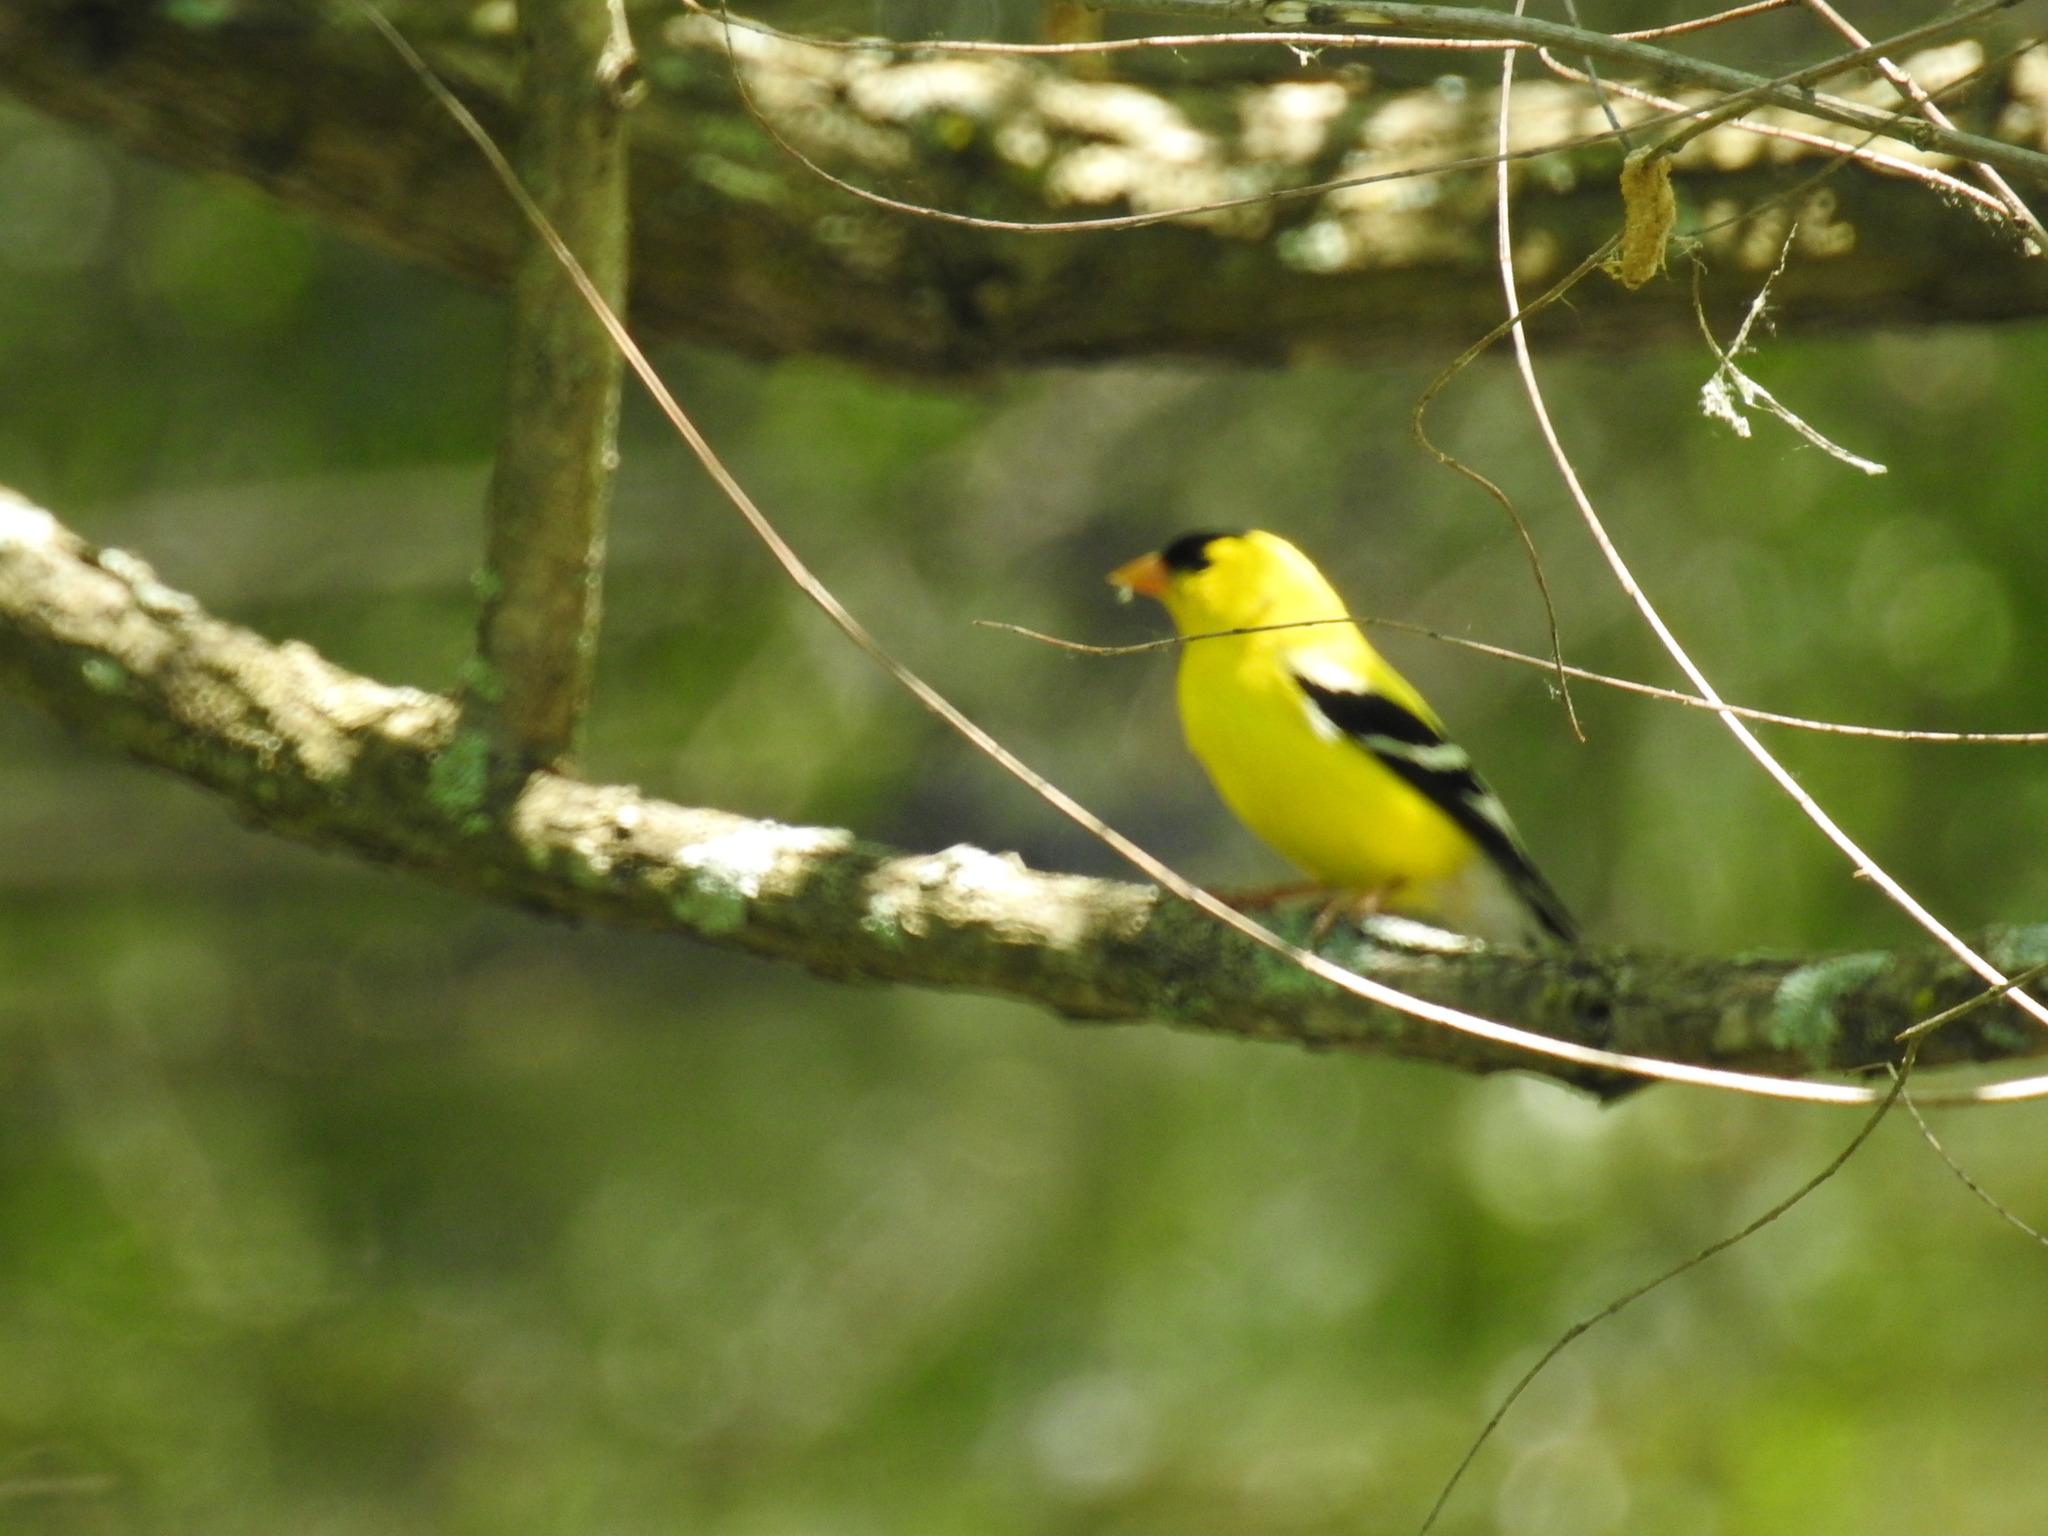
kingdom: Animalia
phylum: Chordata
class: Aves
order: Passeriformes
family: Fringillidae
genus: Spinus
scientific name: Spinus tristis
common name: American goldfinch
